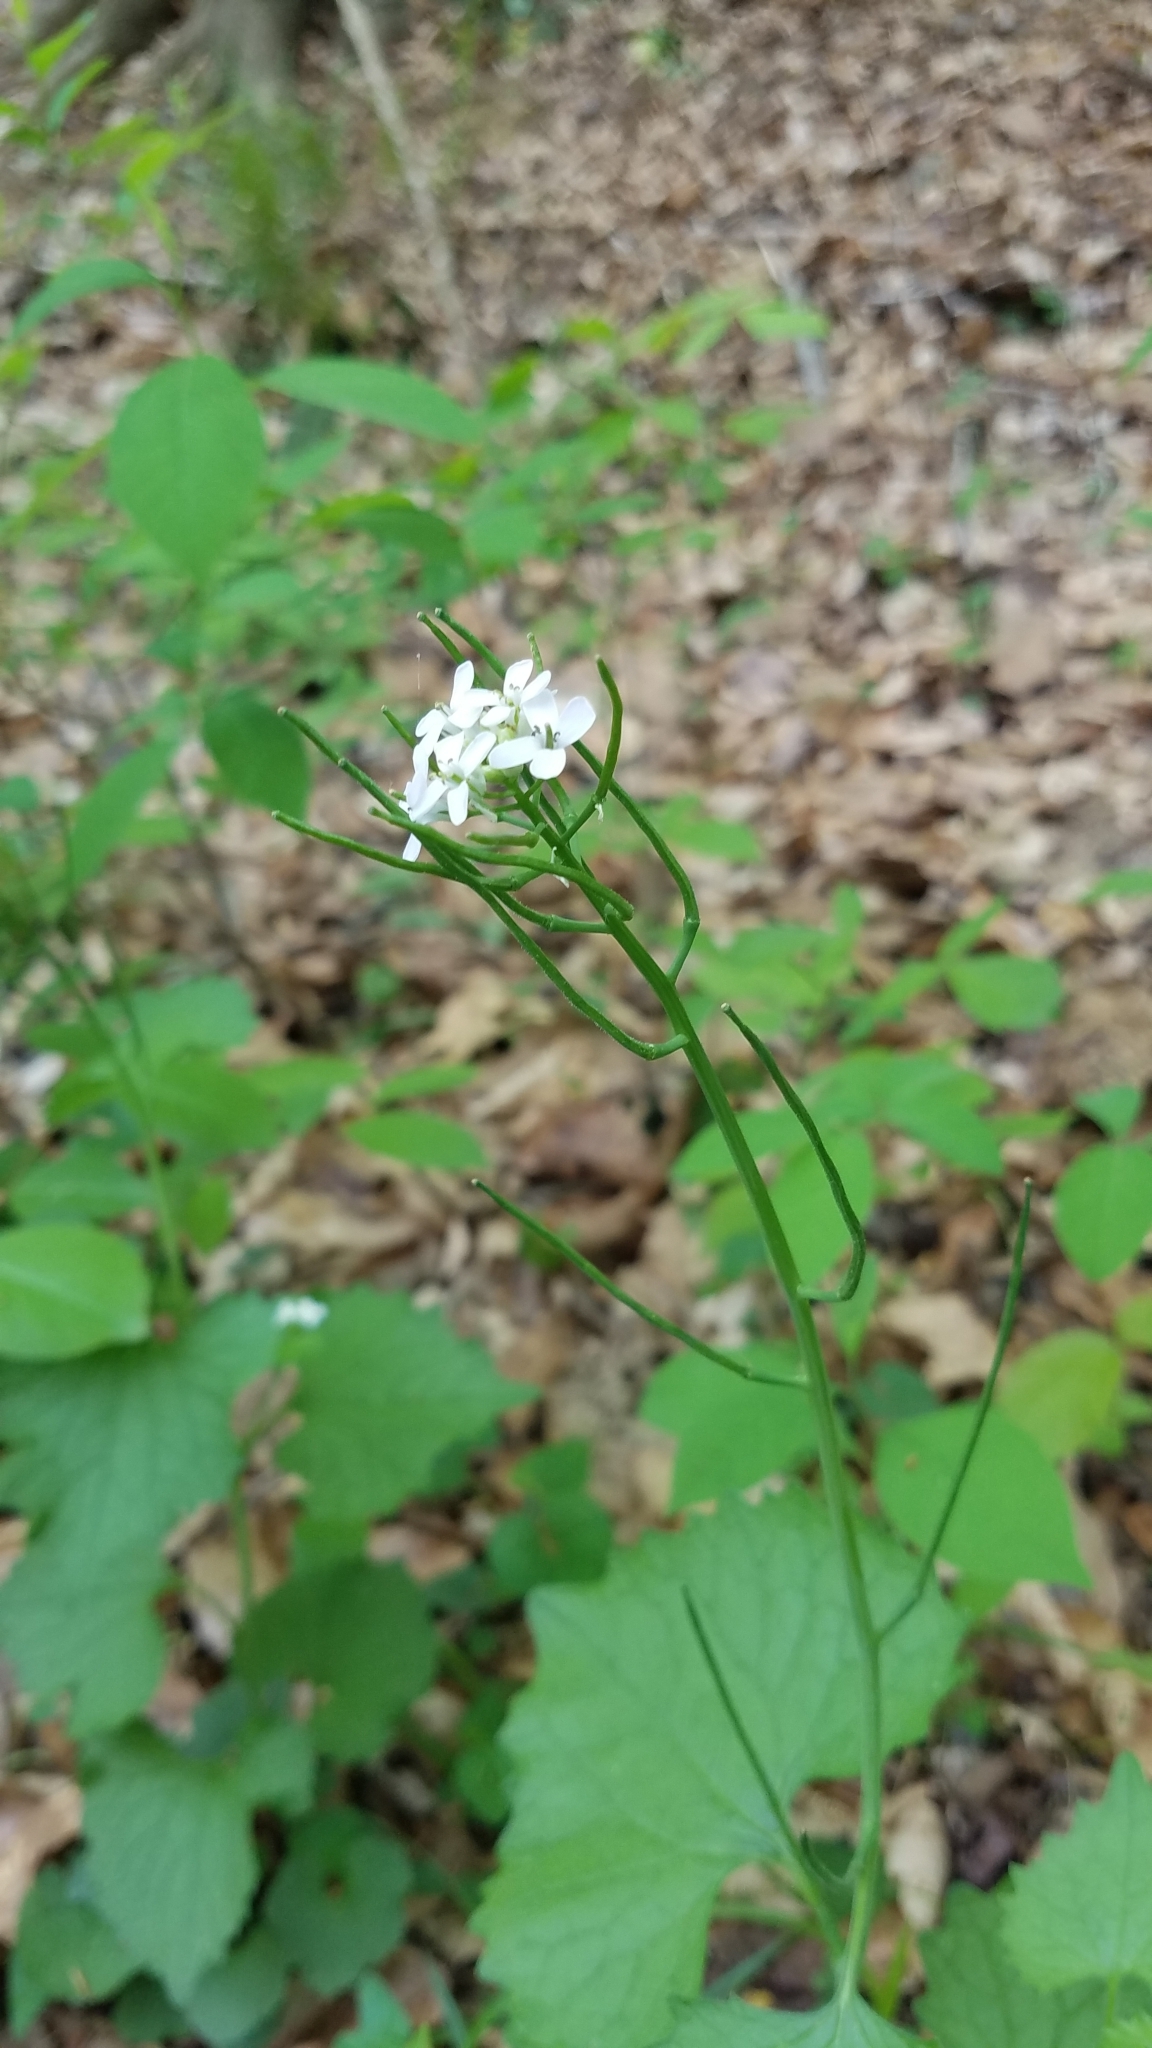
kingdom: Plantae
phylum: Tracheophyta
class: Magnoliopsida
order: Brassicales
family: Brassicaceae
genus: Alliaria
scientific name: Alliaria petiolata
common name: Garlic mustard
